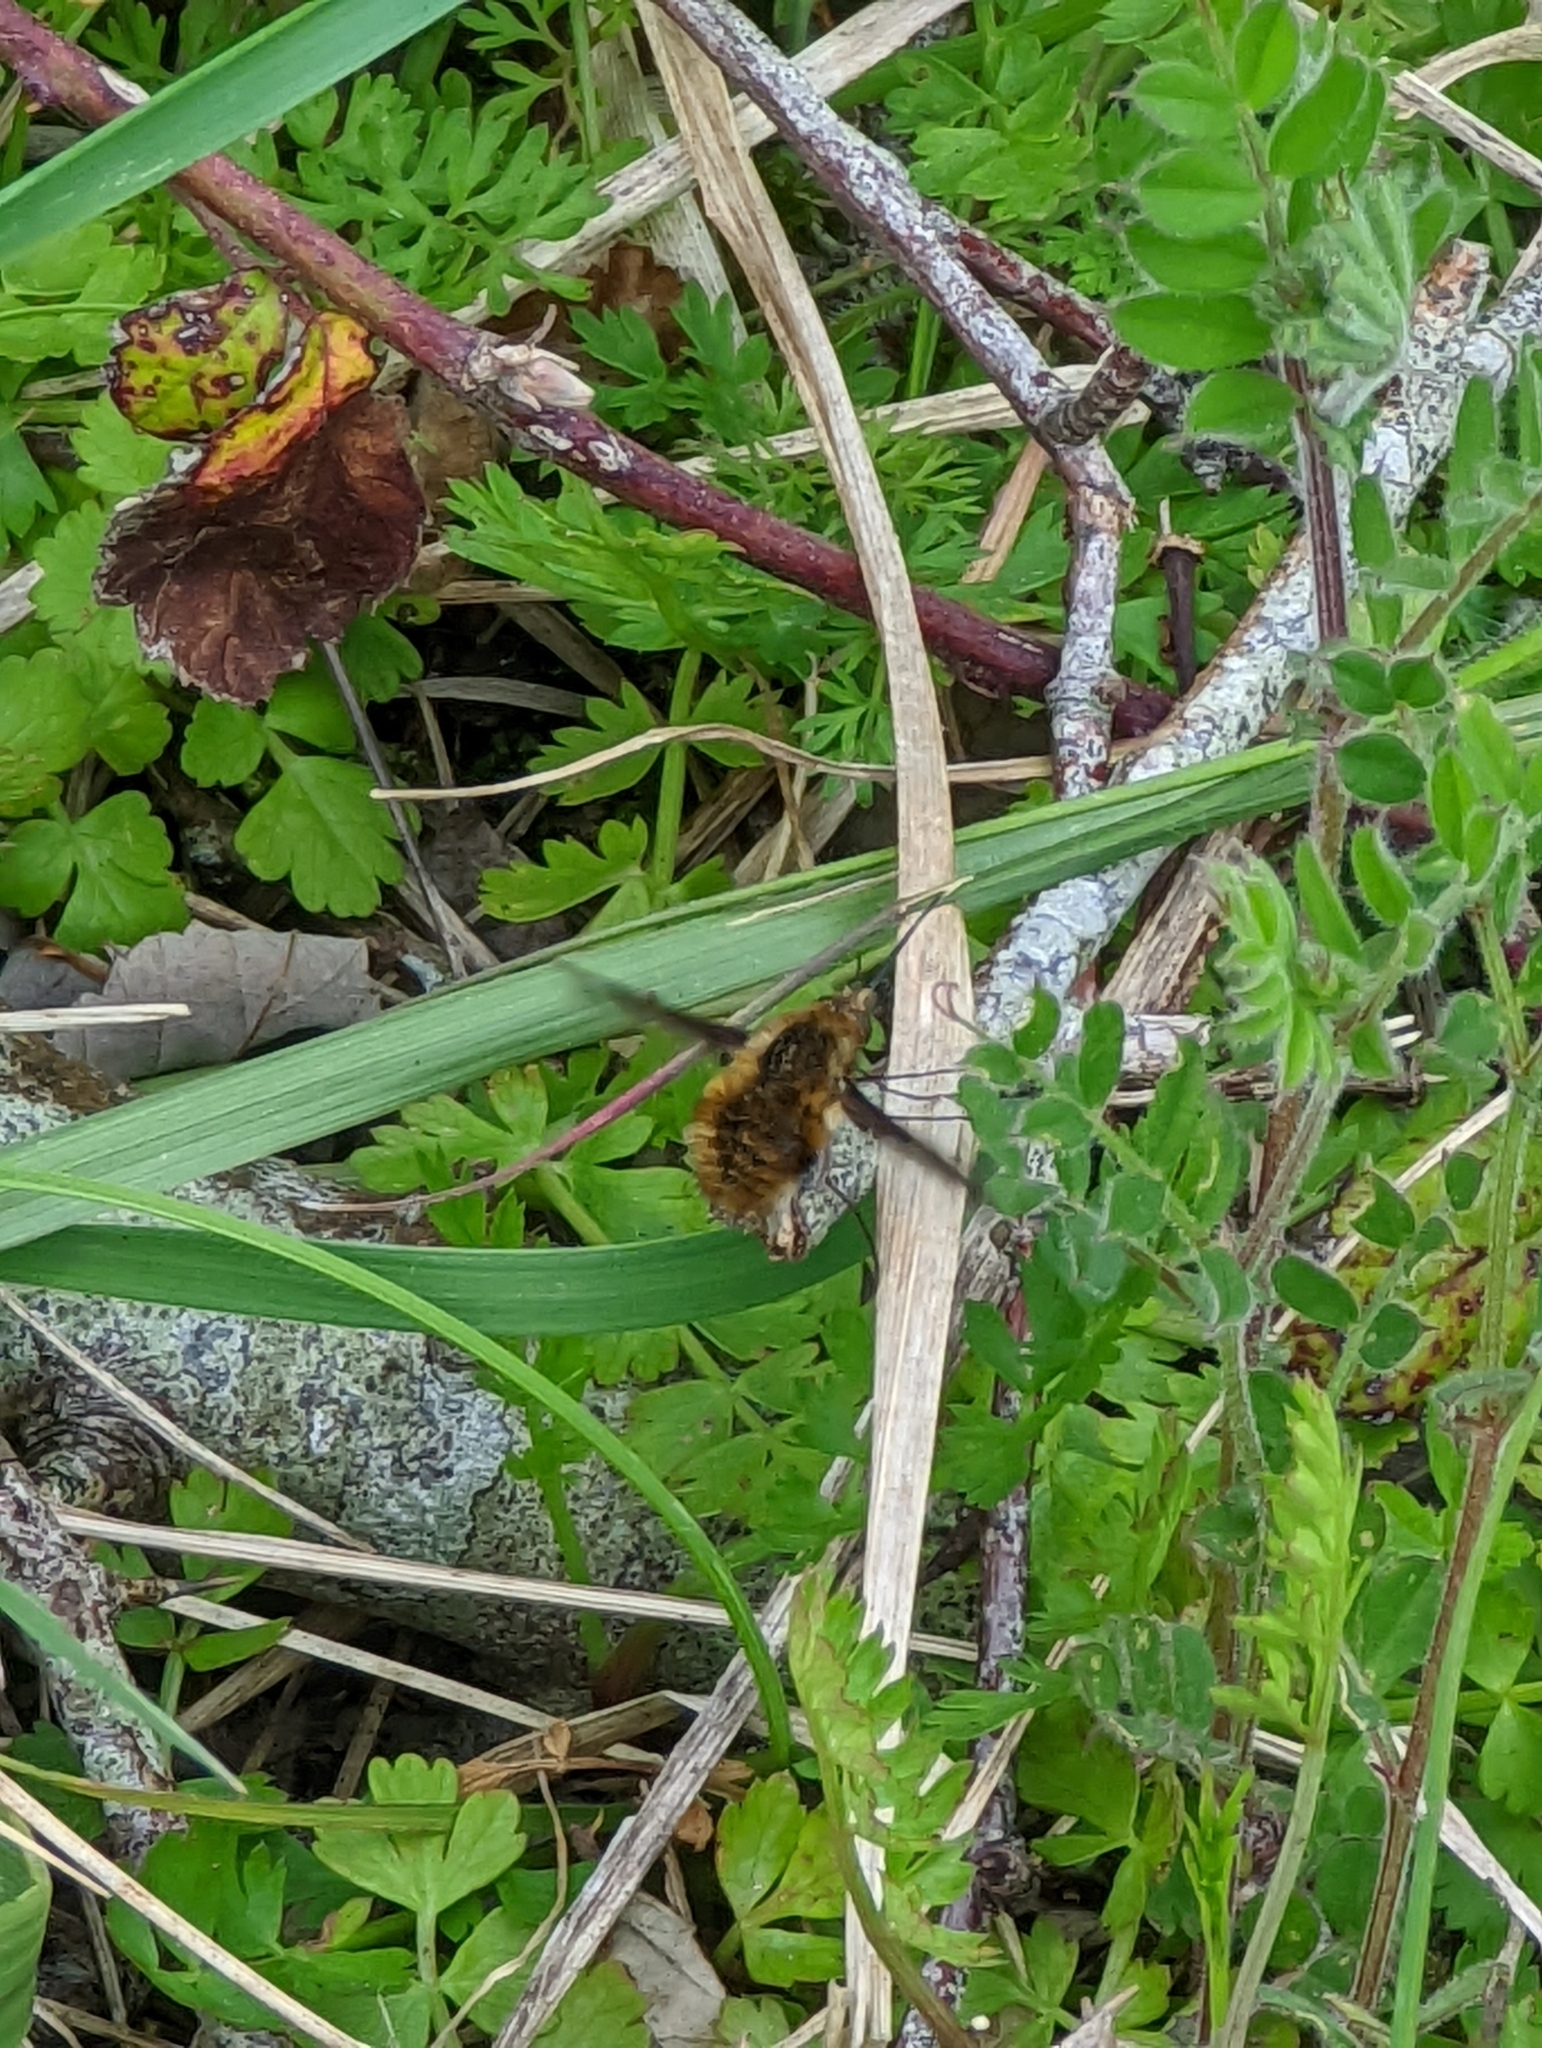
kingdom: Animalia
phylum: Arthropoda
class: Insecta
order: Diptera
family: Bombyliidae
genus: Bombylius
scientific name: Bombylius major
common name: Bee fly
